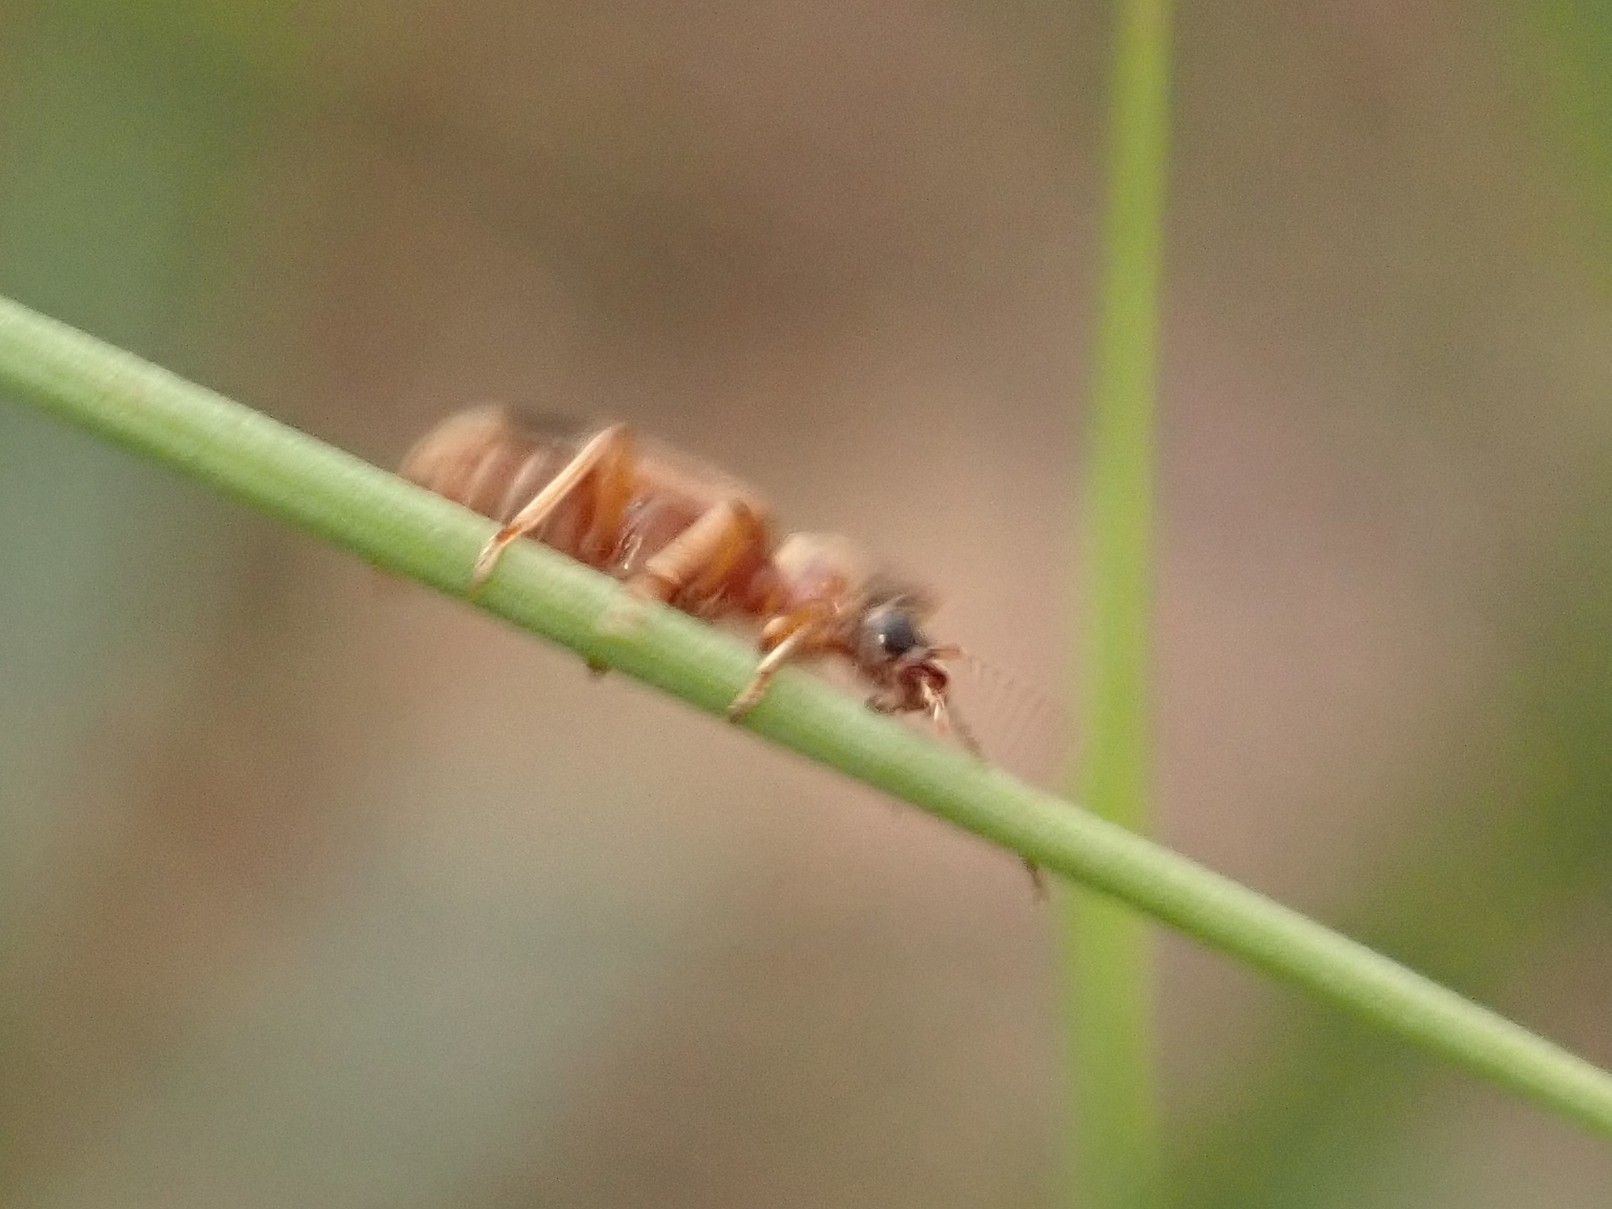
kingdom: Animalia
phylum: Arthropoda
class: Insecta
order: Coleoptera
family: Anthicidae
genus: Notoxus
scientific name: Notoxus monoceros
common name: Monoceros beetle
